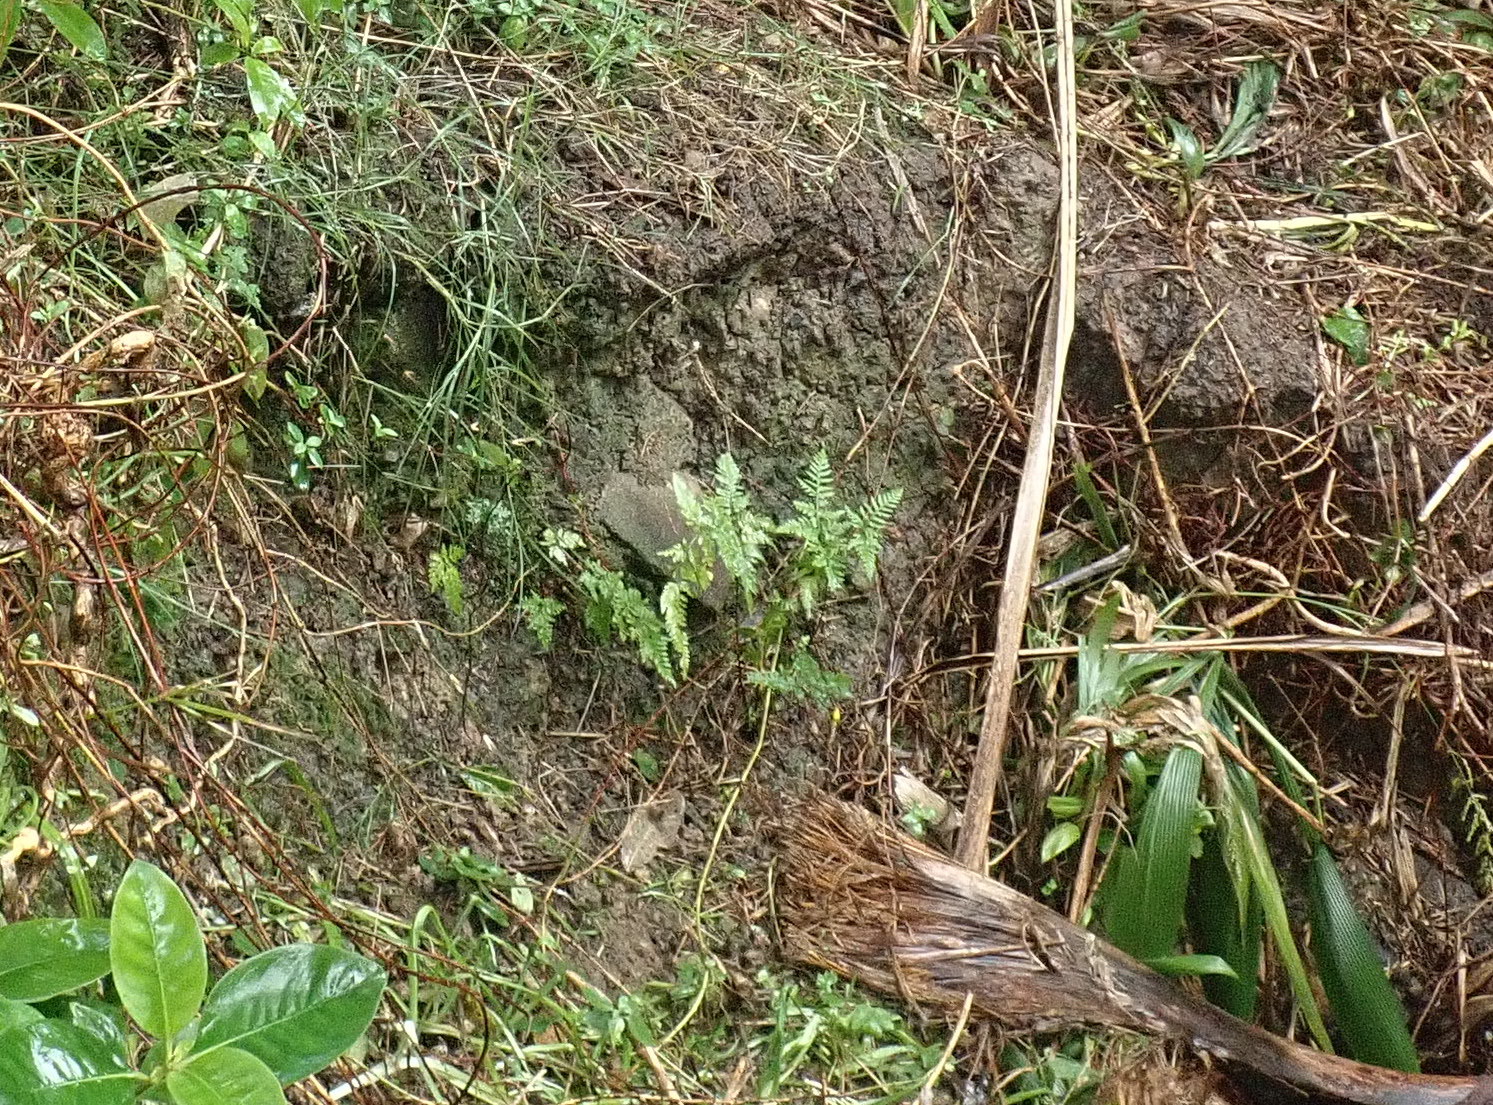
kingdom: Plantae
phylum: Tracheophyta
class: Polypodiopsida
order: Polypodiales
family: Pteridaceae
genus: Pteris
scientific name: Pteris tremula
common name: Australian brake
